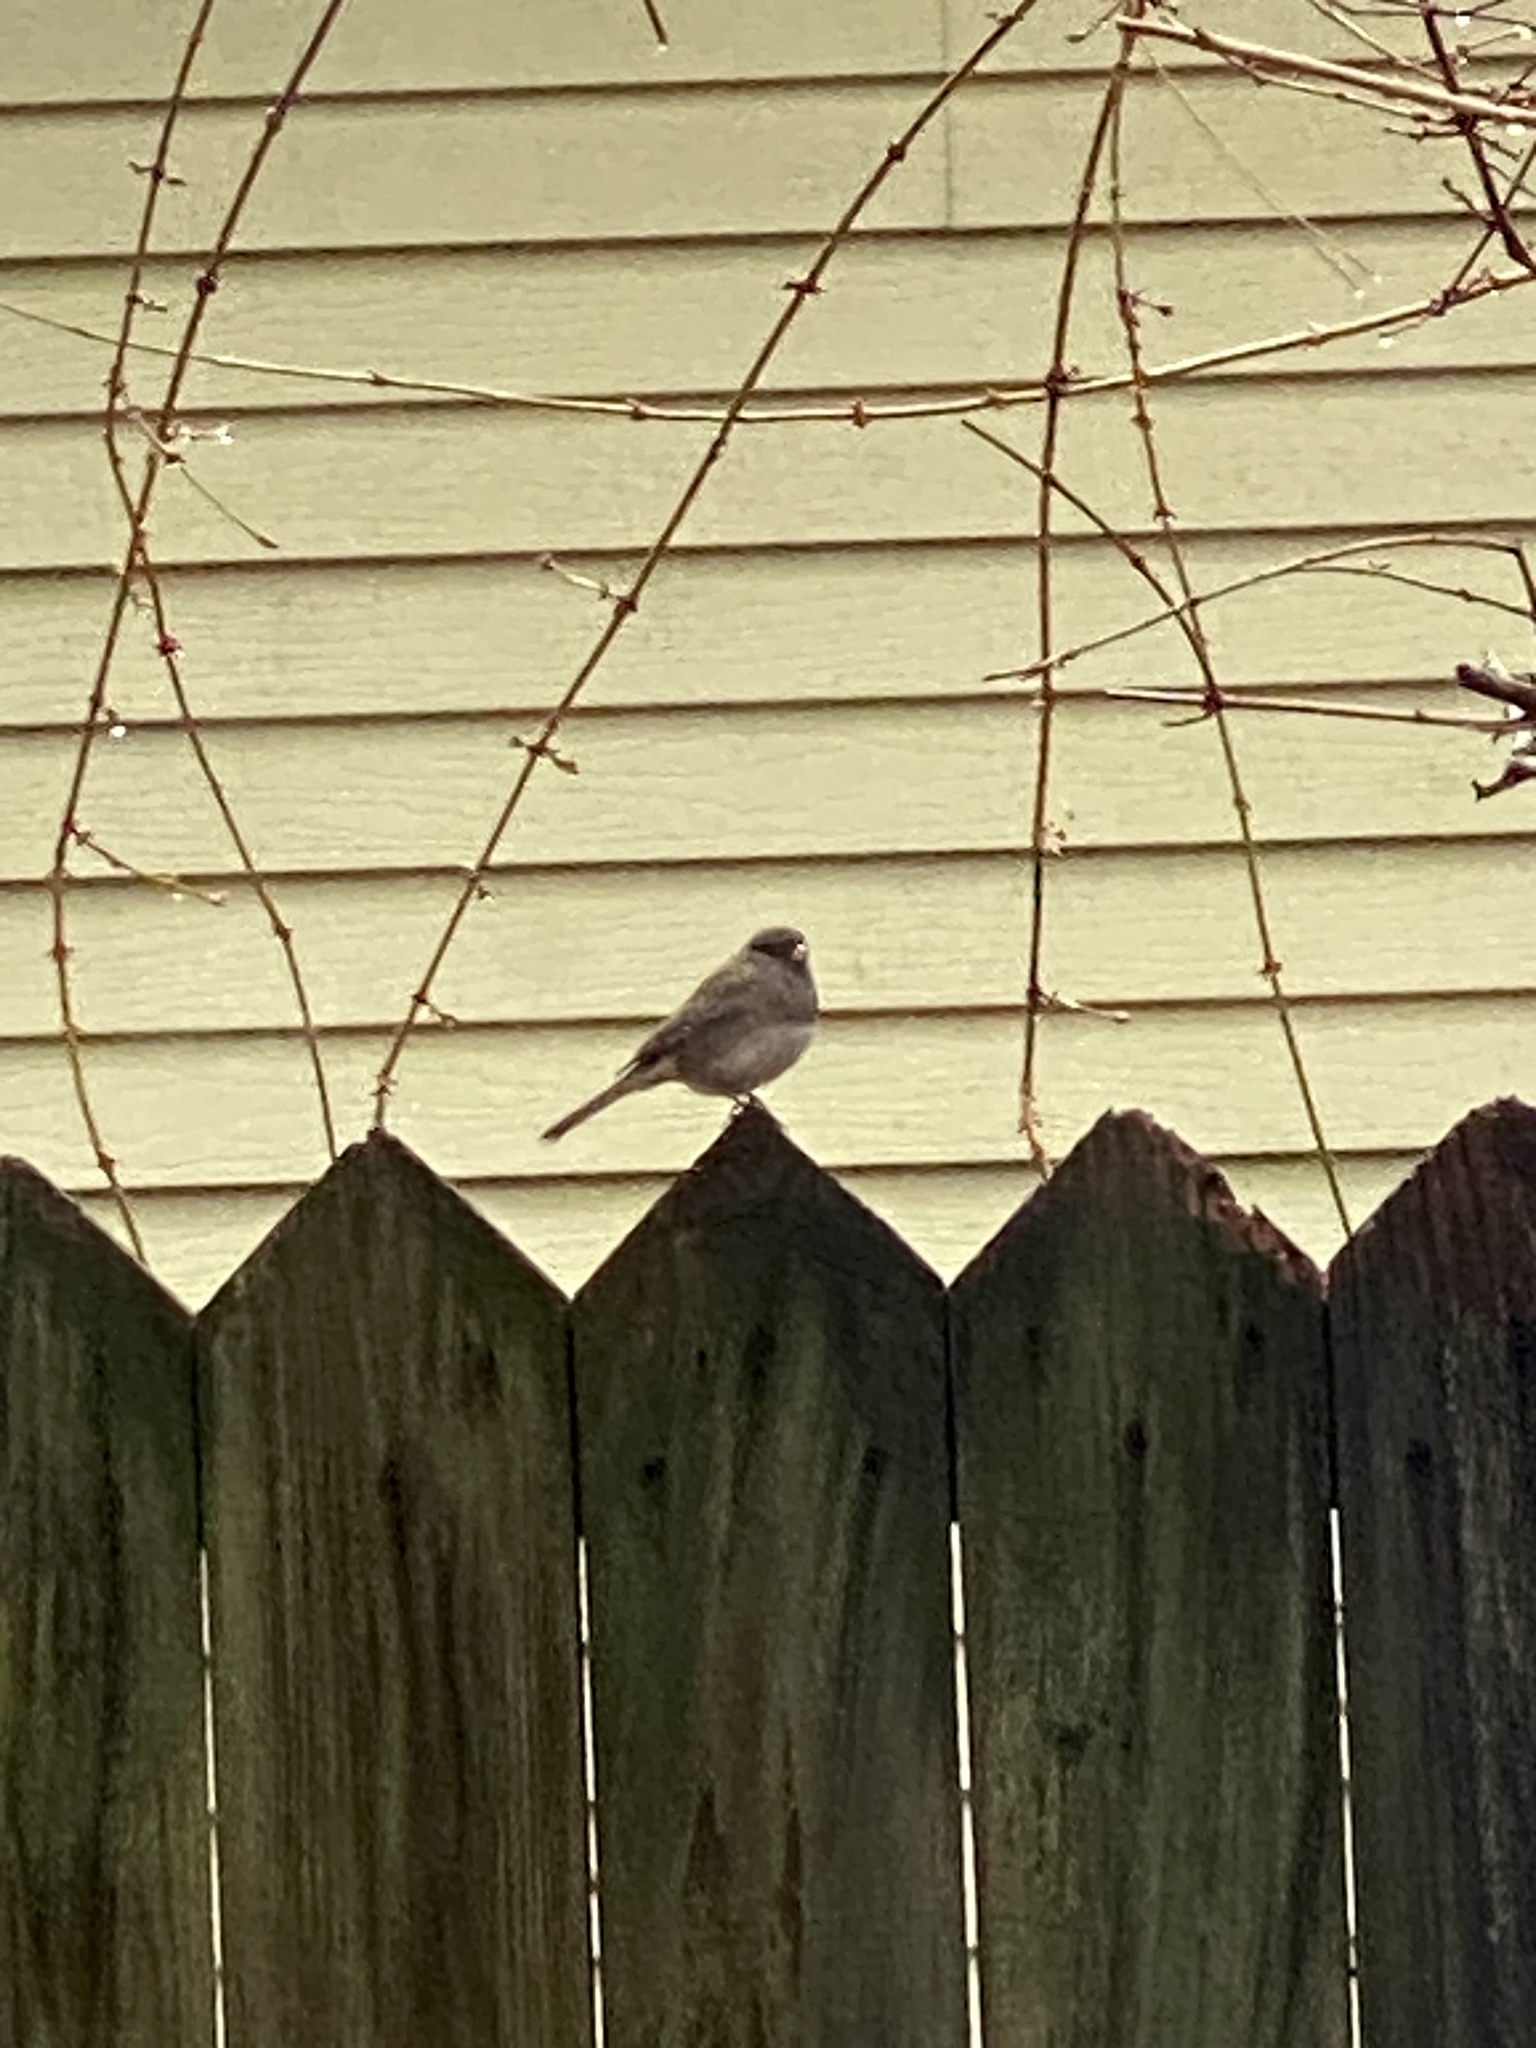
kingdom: Animalia
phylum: Chordata
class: Aves
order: Passeriformes
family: Passerellidae
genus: Junco
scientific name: Junco hyemalis
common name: Dark-eyed junco
